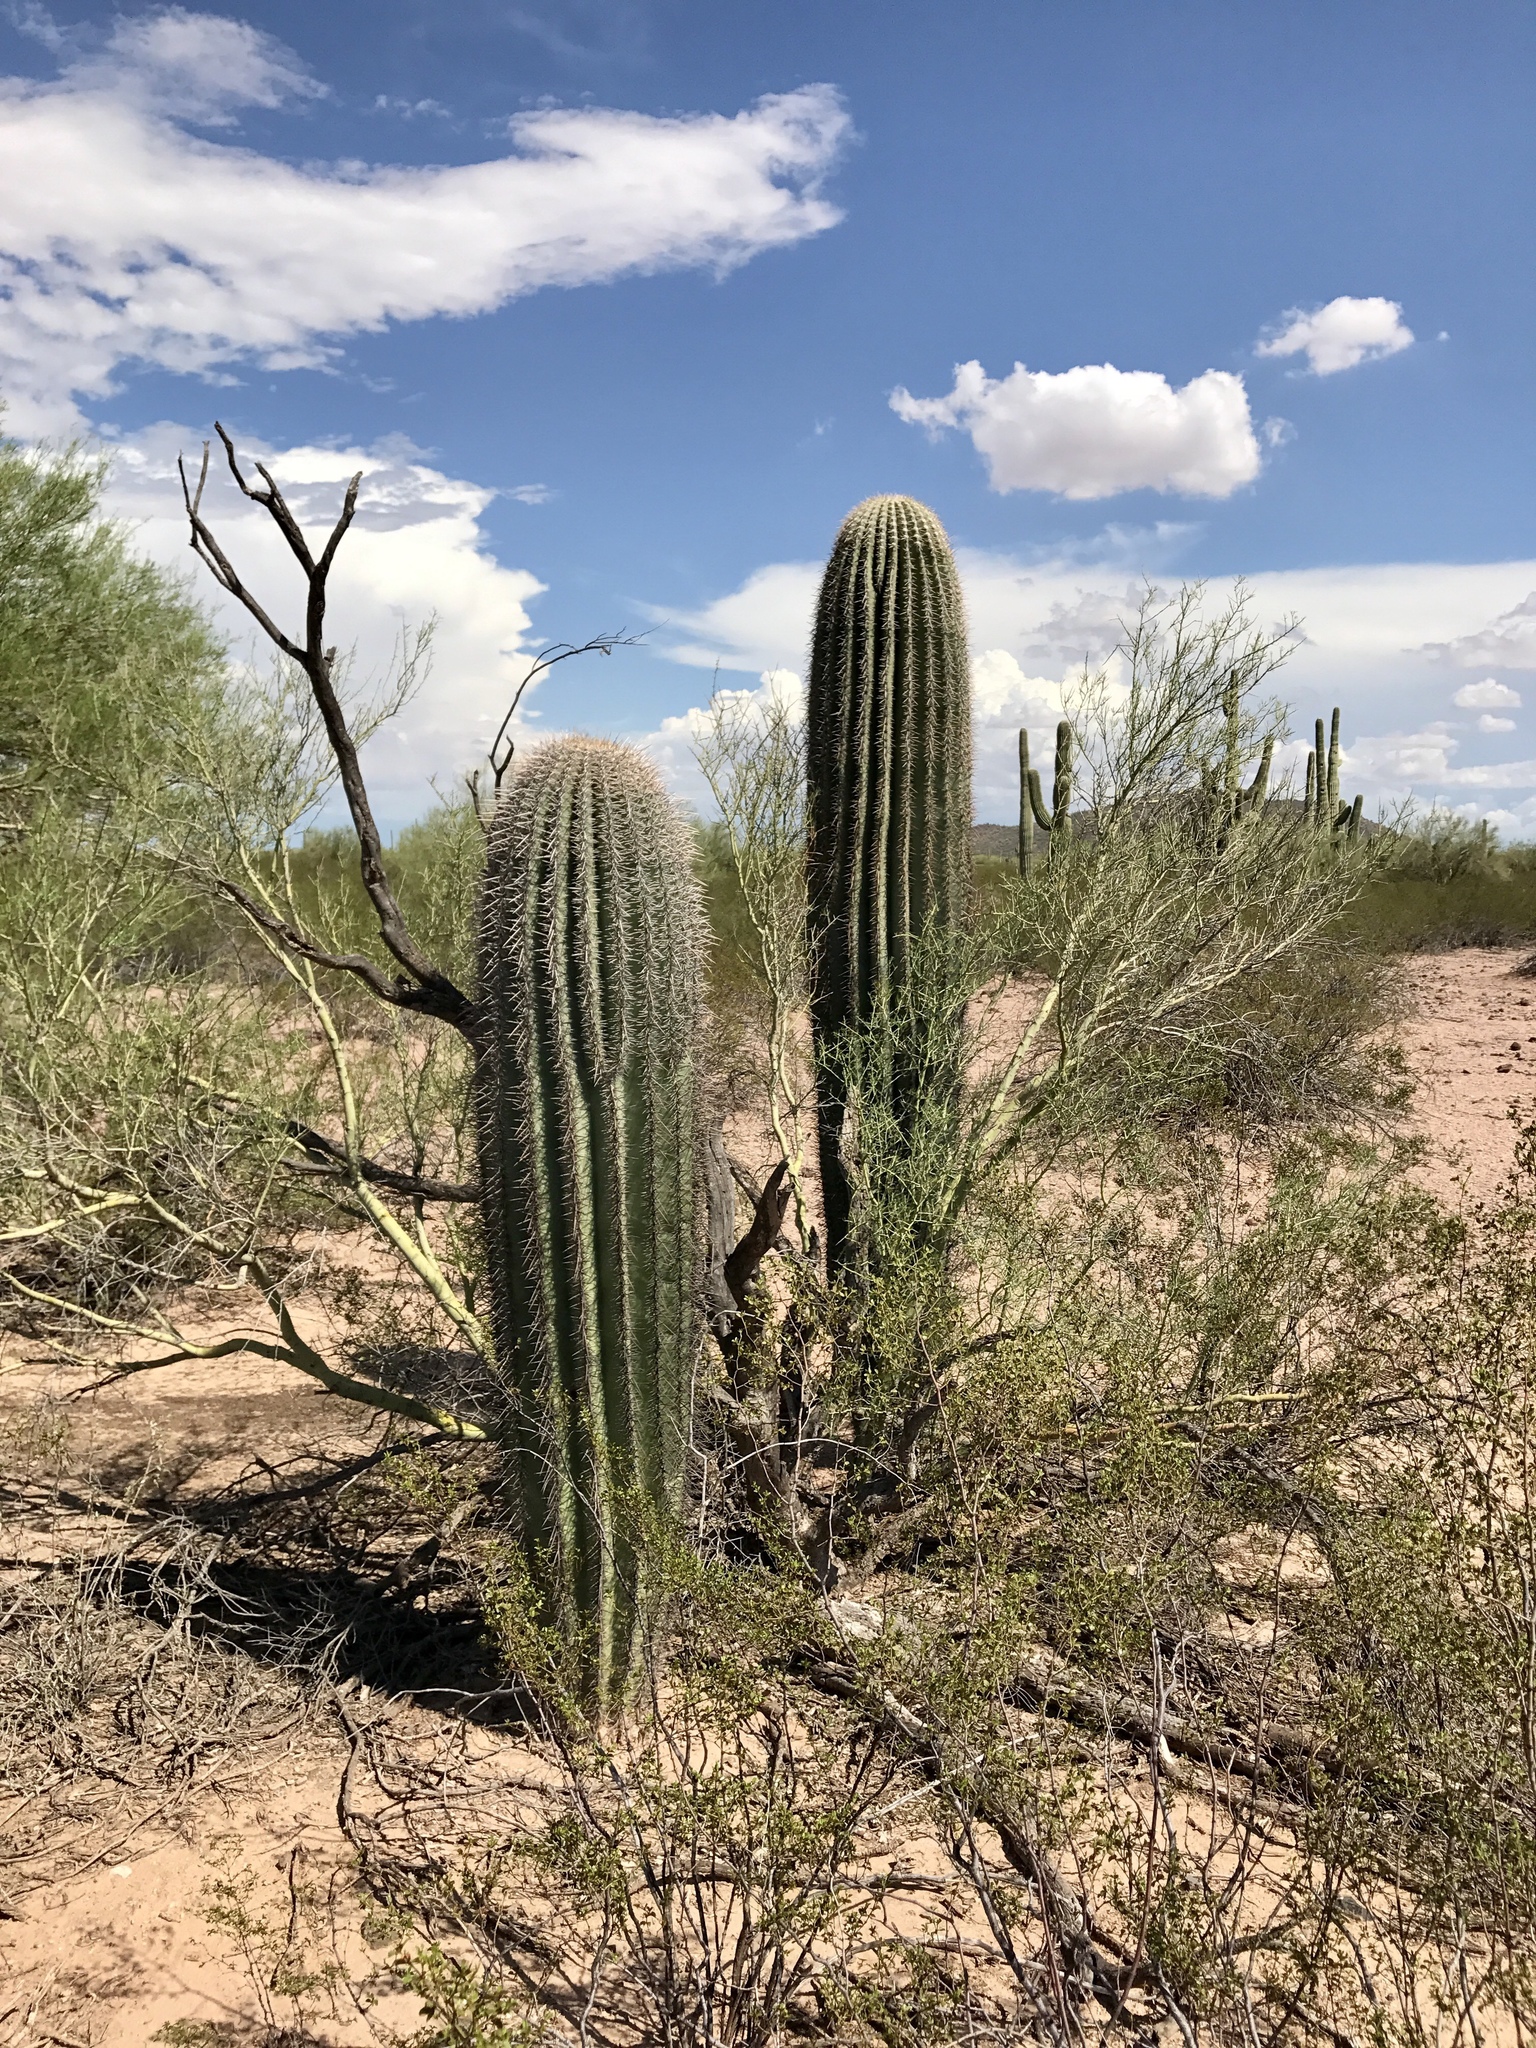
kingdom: Plantae
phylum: Tracheophyta
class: Magnoliopsida
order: Caryophyllales
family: Cactaceae
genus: Carnegiea
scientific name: Carnegiea gigantea
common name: Saguaro
